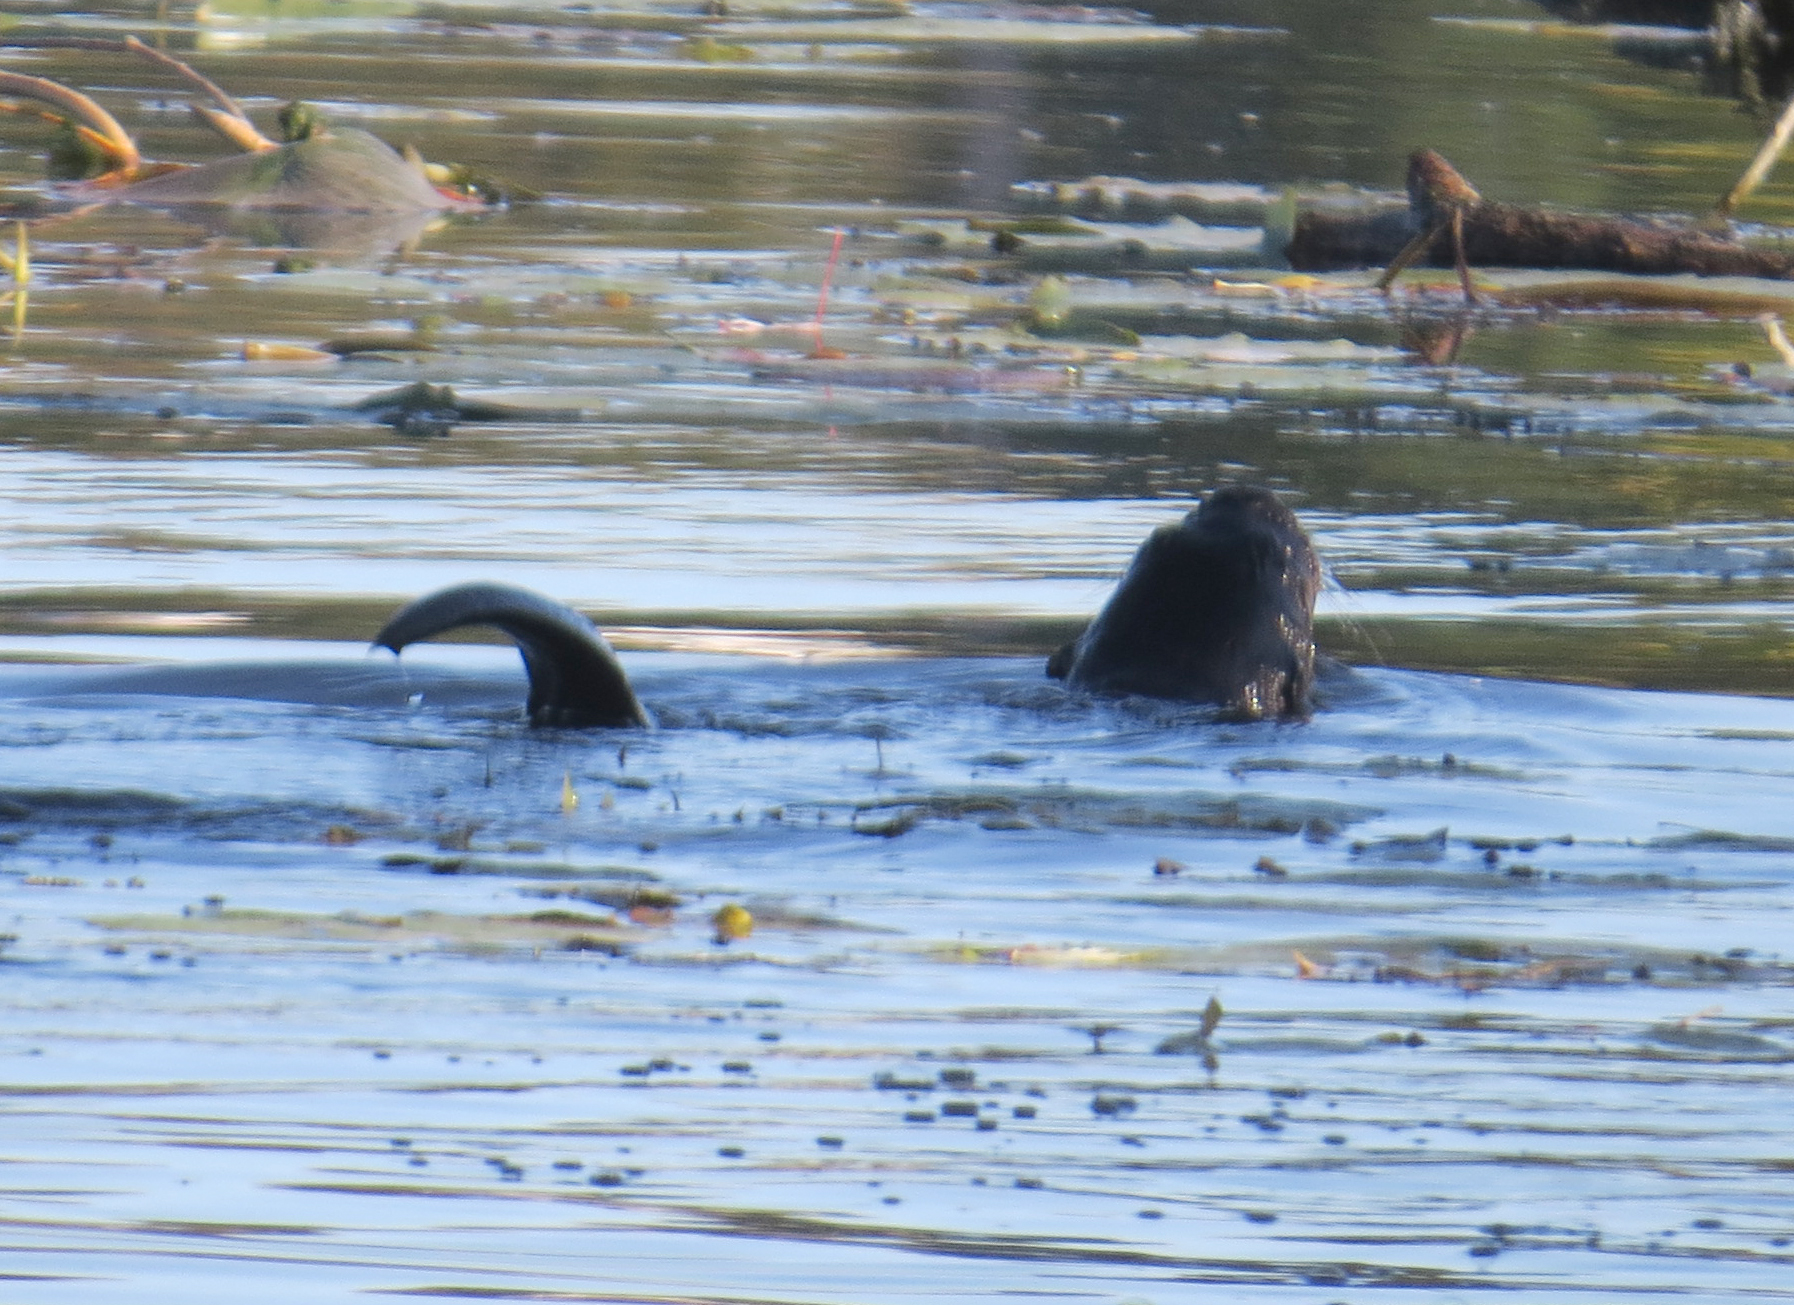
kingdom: Animalia
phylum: Chordata
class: Mammalia
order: Carnivora
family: Mustelidae
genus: Lontra
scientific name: Lontra canadensis
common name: North american river otter
